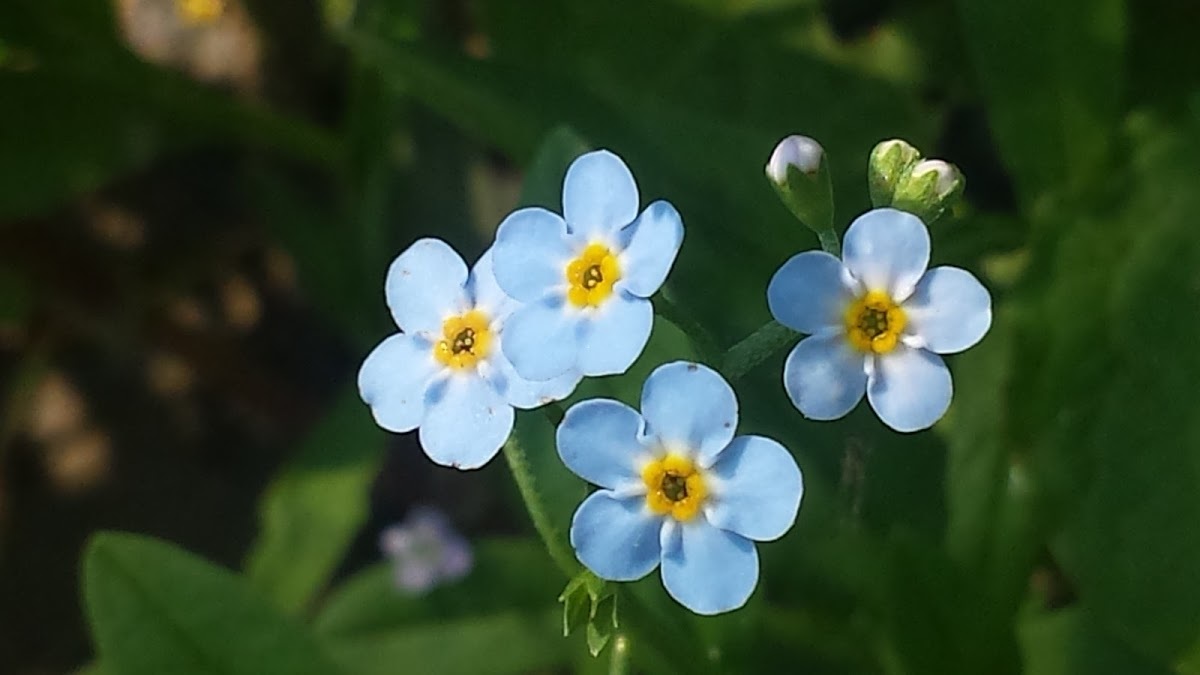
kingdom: Plantae
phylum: Tracheophyta
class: Magnoliopsida
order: Boraginales
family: Boraginaceae
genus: Myosotis
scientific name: Myosotis scorpioides
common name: Water forget-me-not
